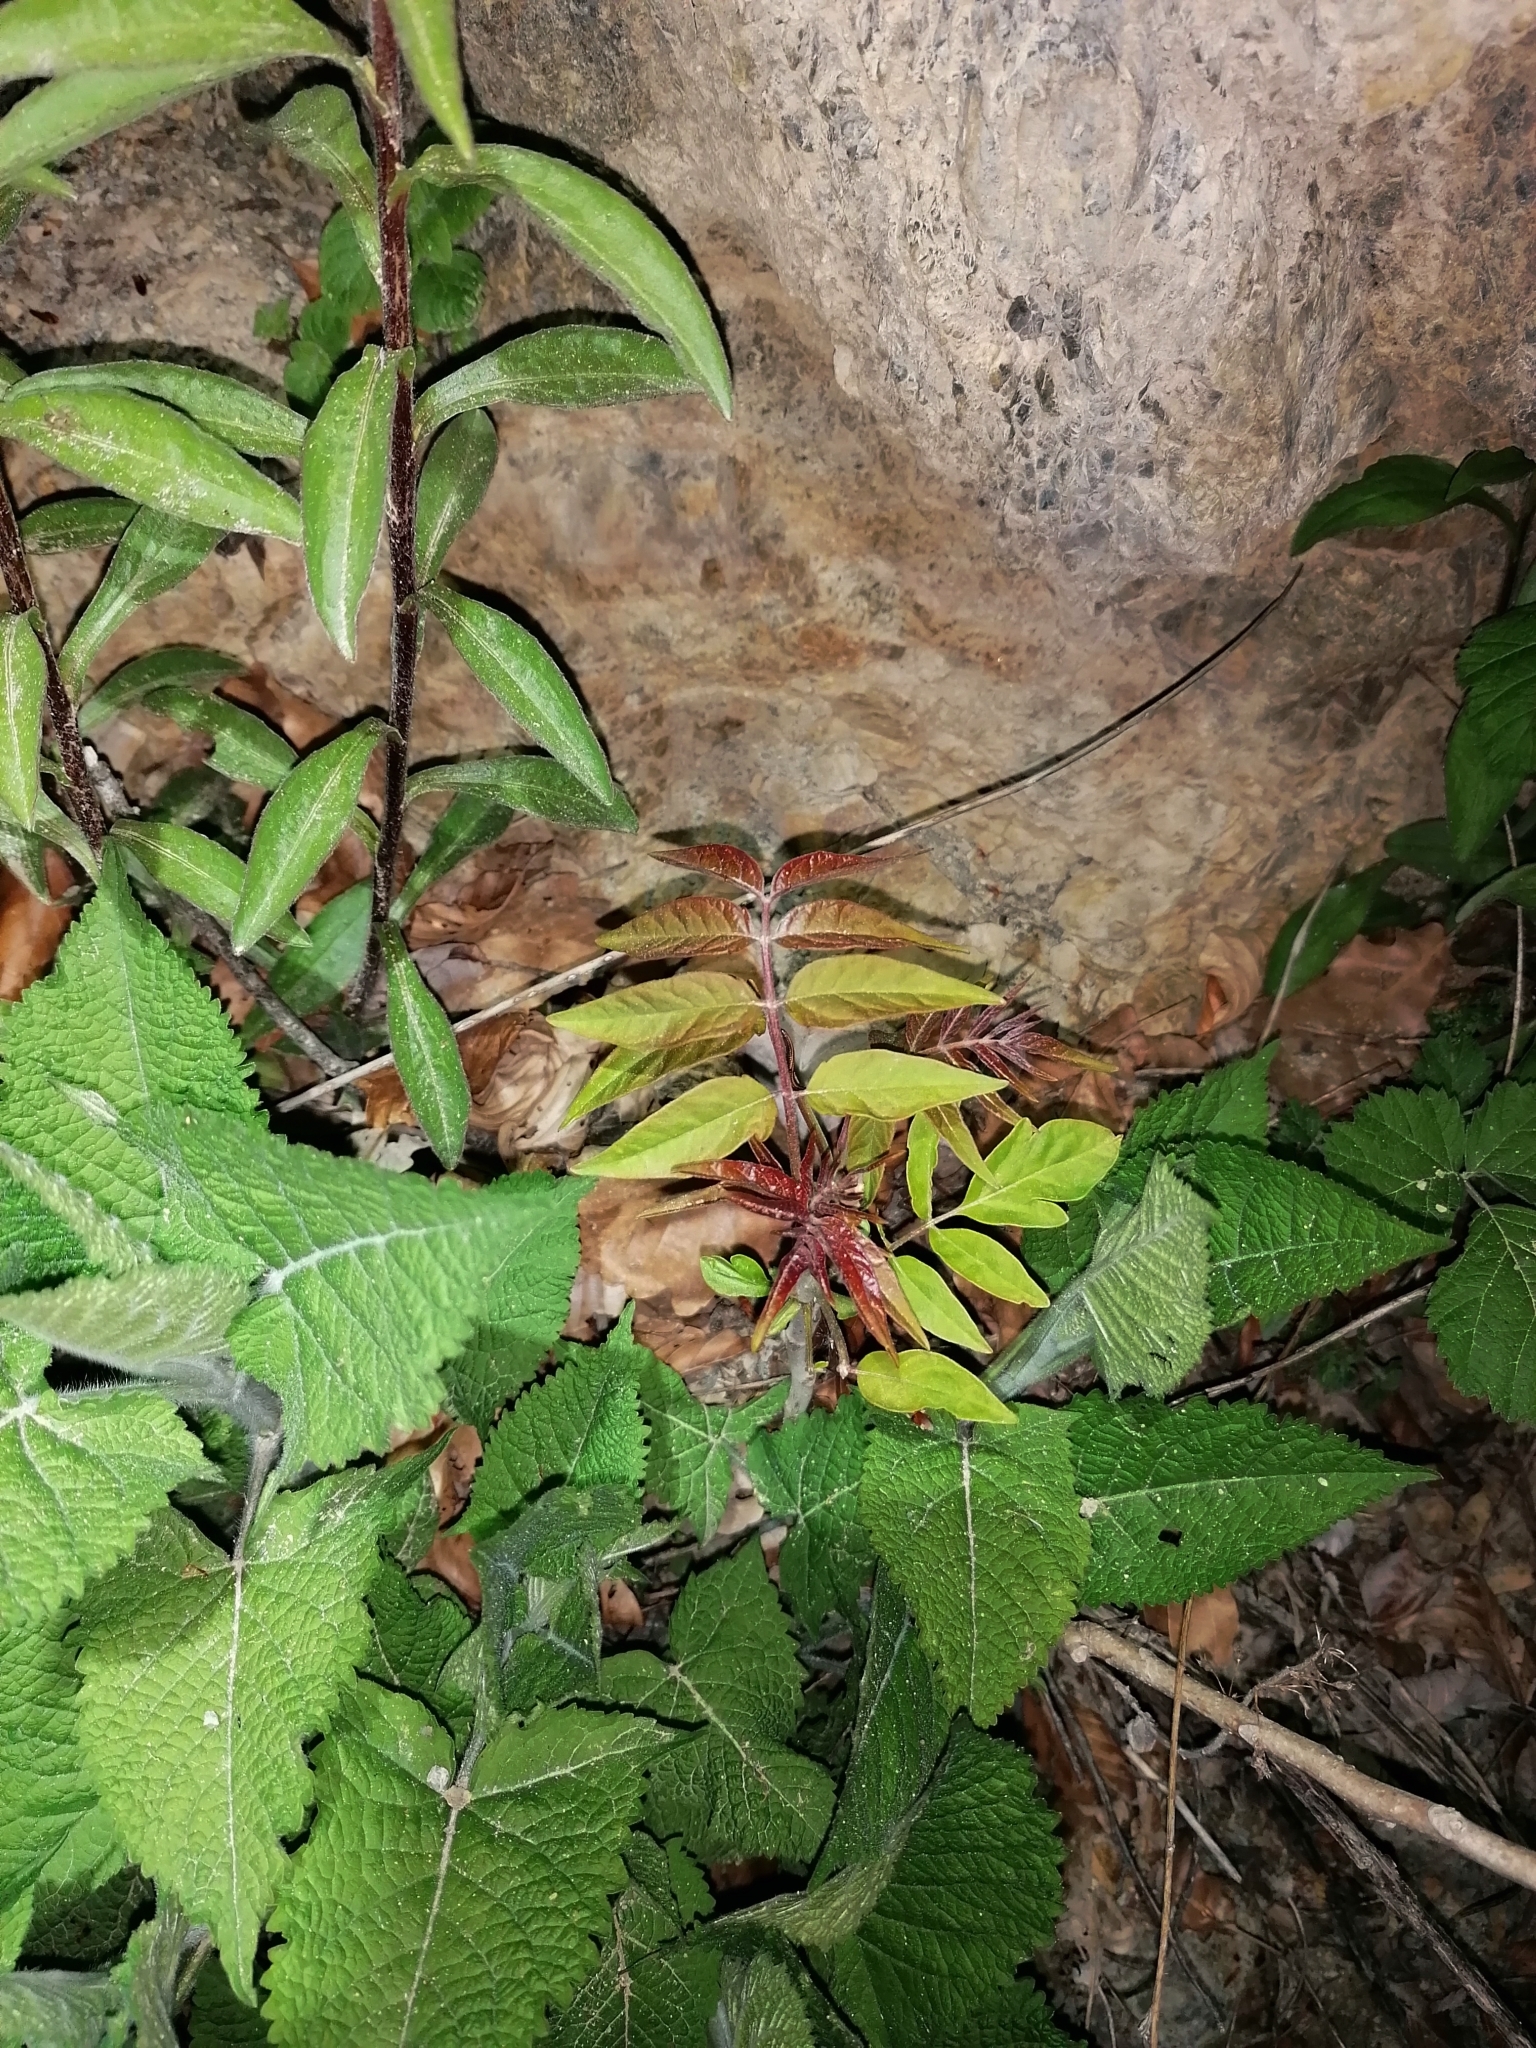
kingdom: Plantae
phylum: Tracheophyta
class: Magnoliopsida
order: Sapindales
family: Simaroubaceae
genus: Ailanthus
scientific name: Ailanthus altissima
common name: Tree-of-heaven
